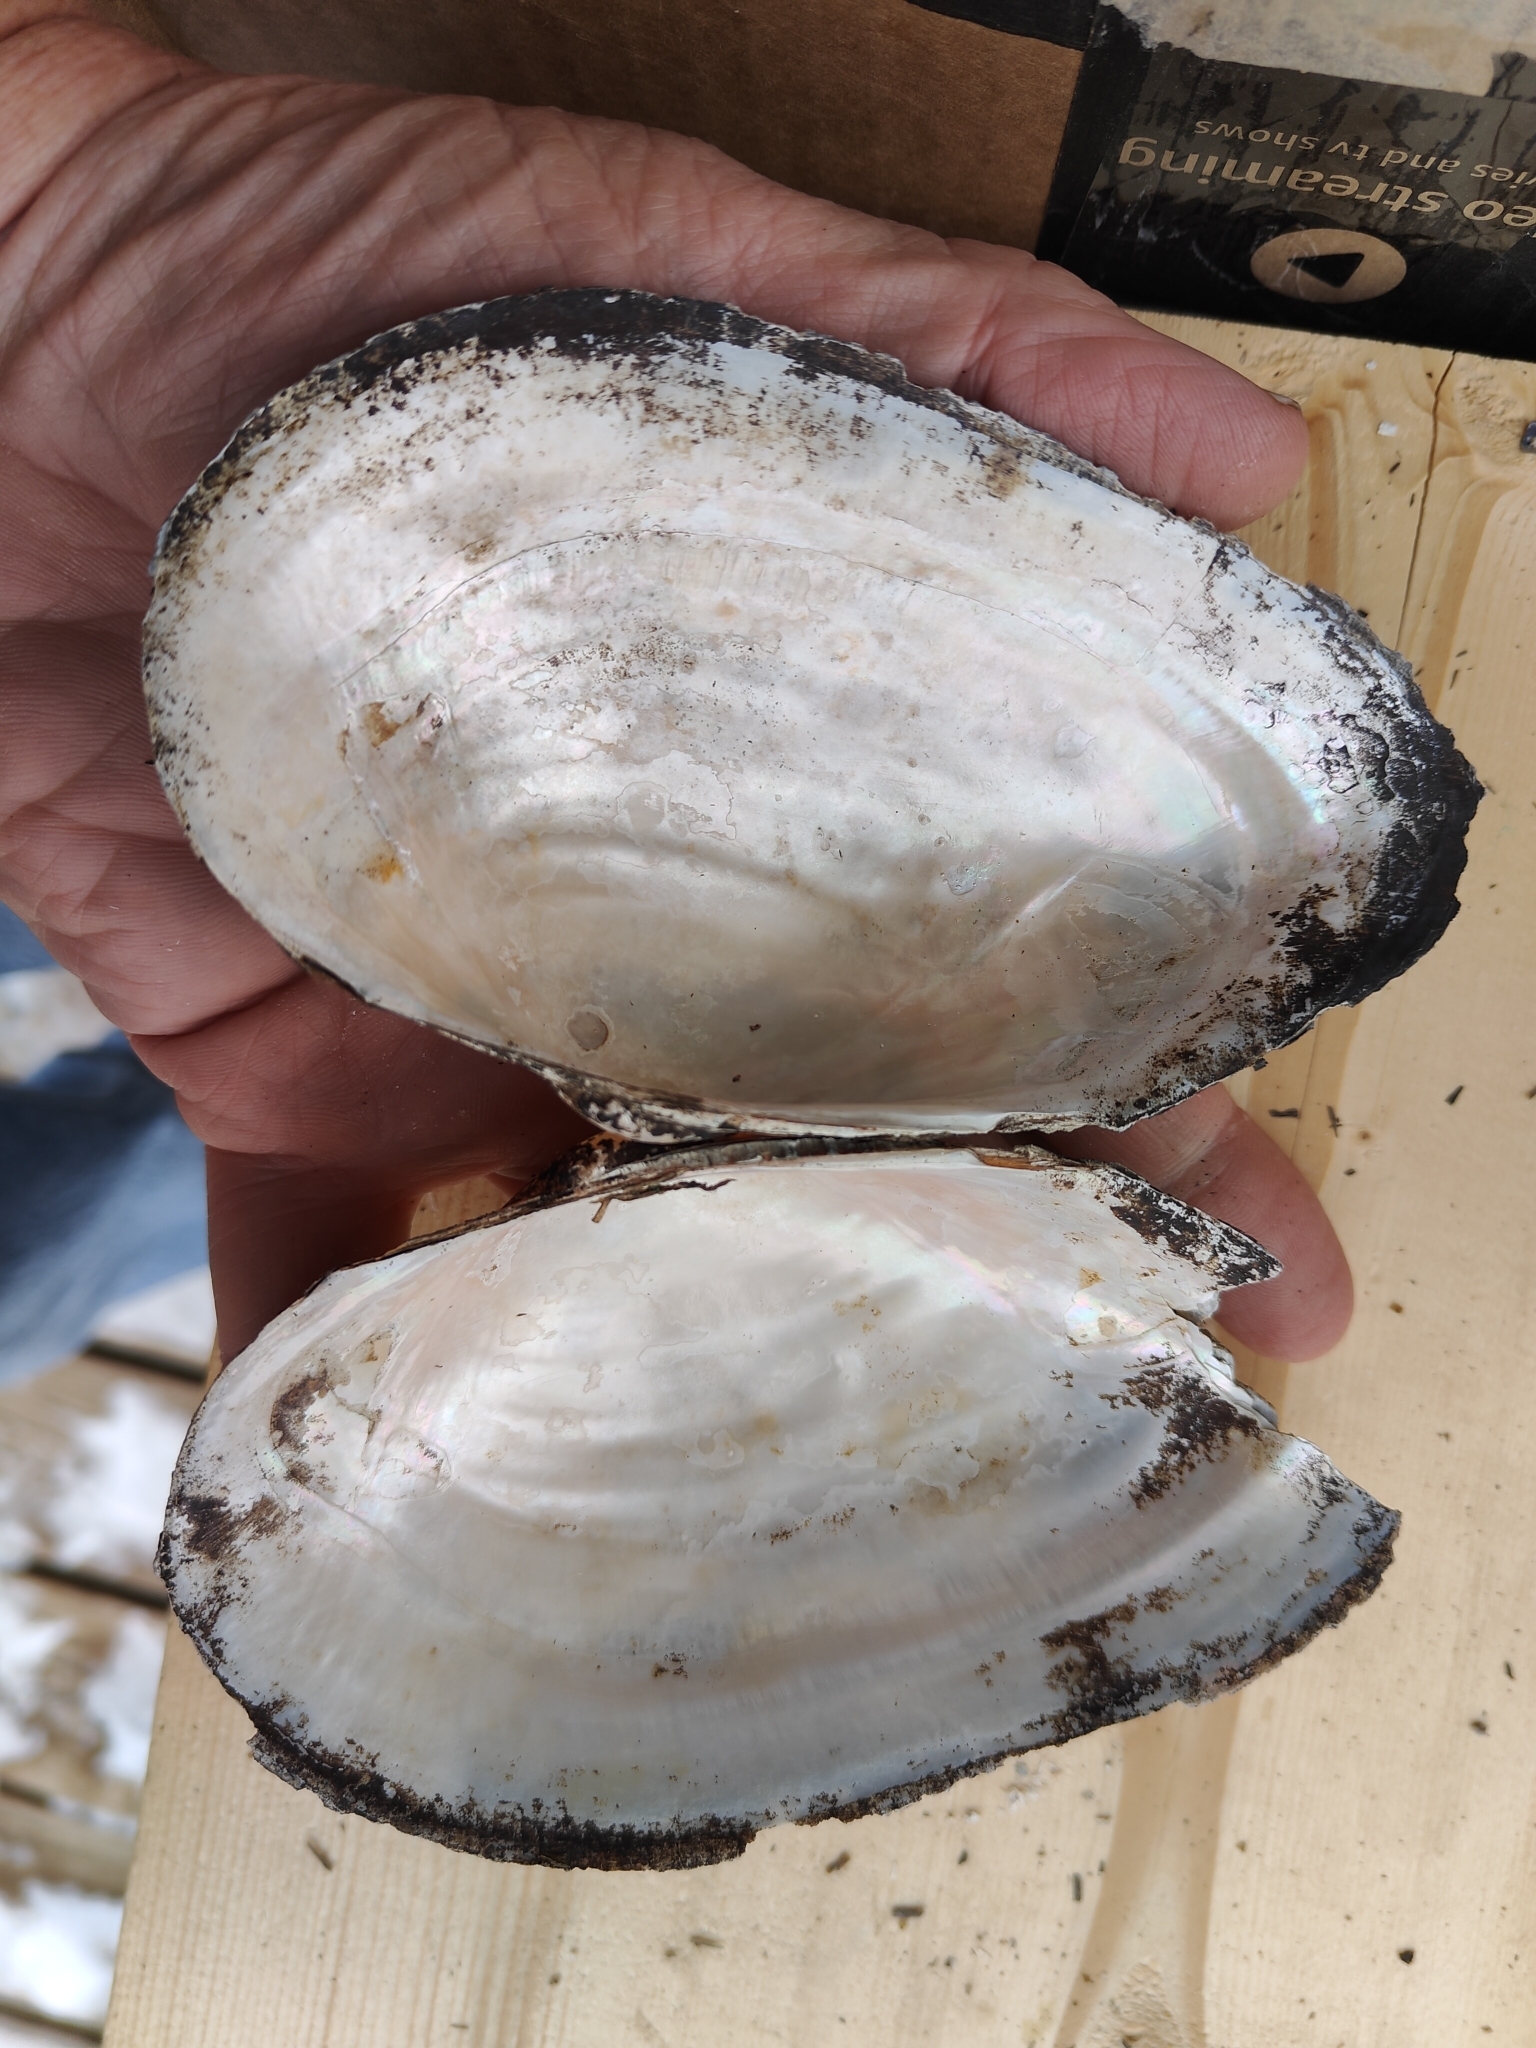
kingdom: Animalia
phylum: Mollusca
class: Bivalvia
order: Unionida
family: Unionidae
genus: Pyganodon
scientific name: Pyganodon grandis
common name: Giant floater
